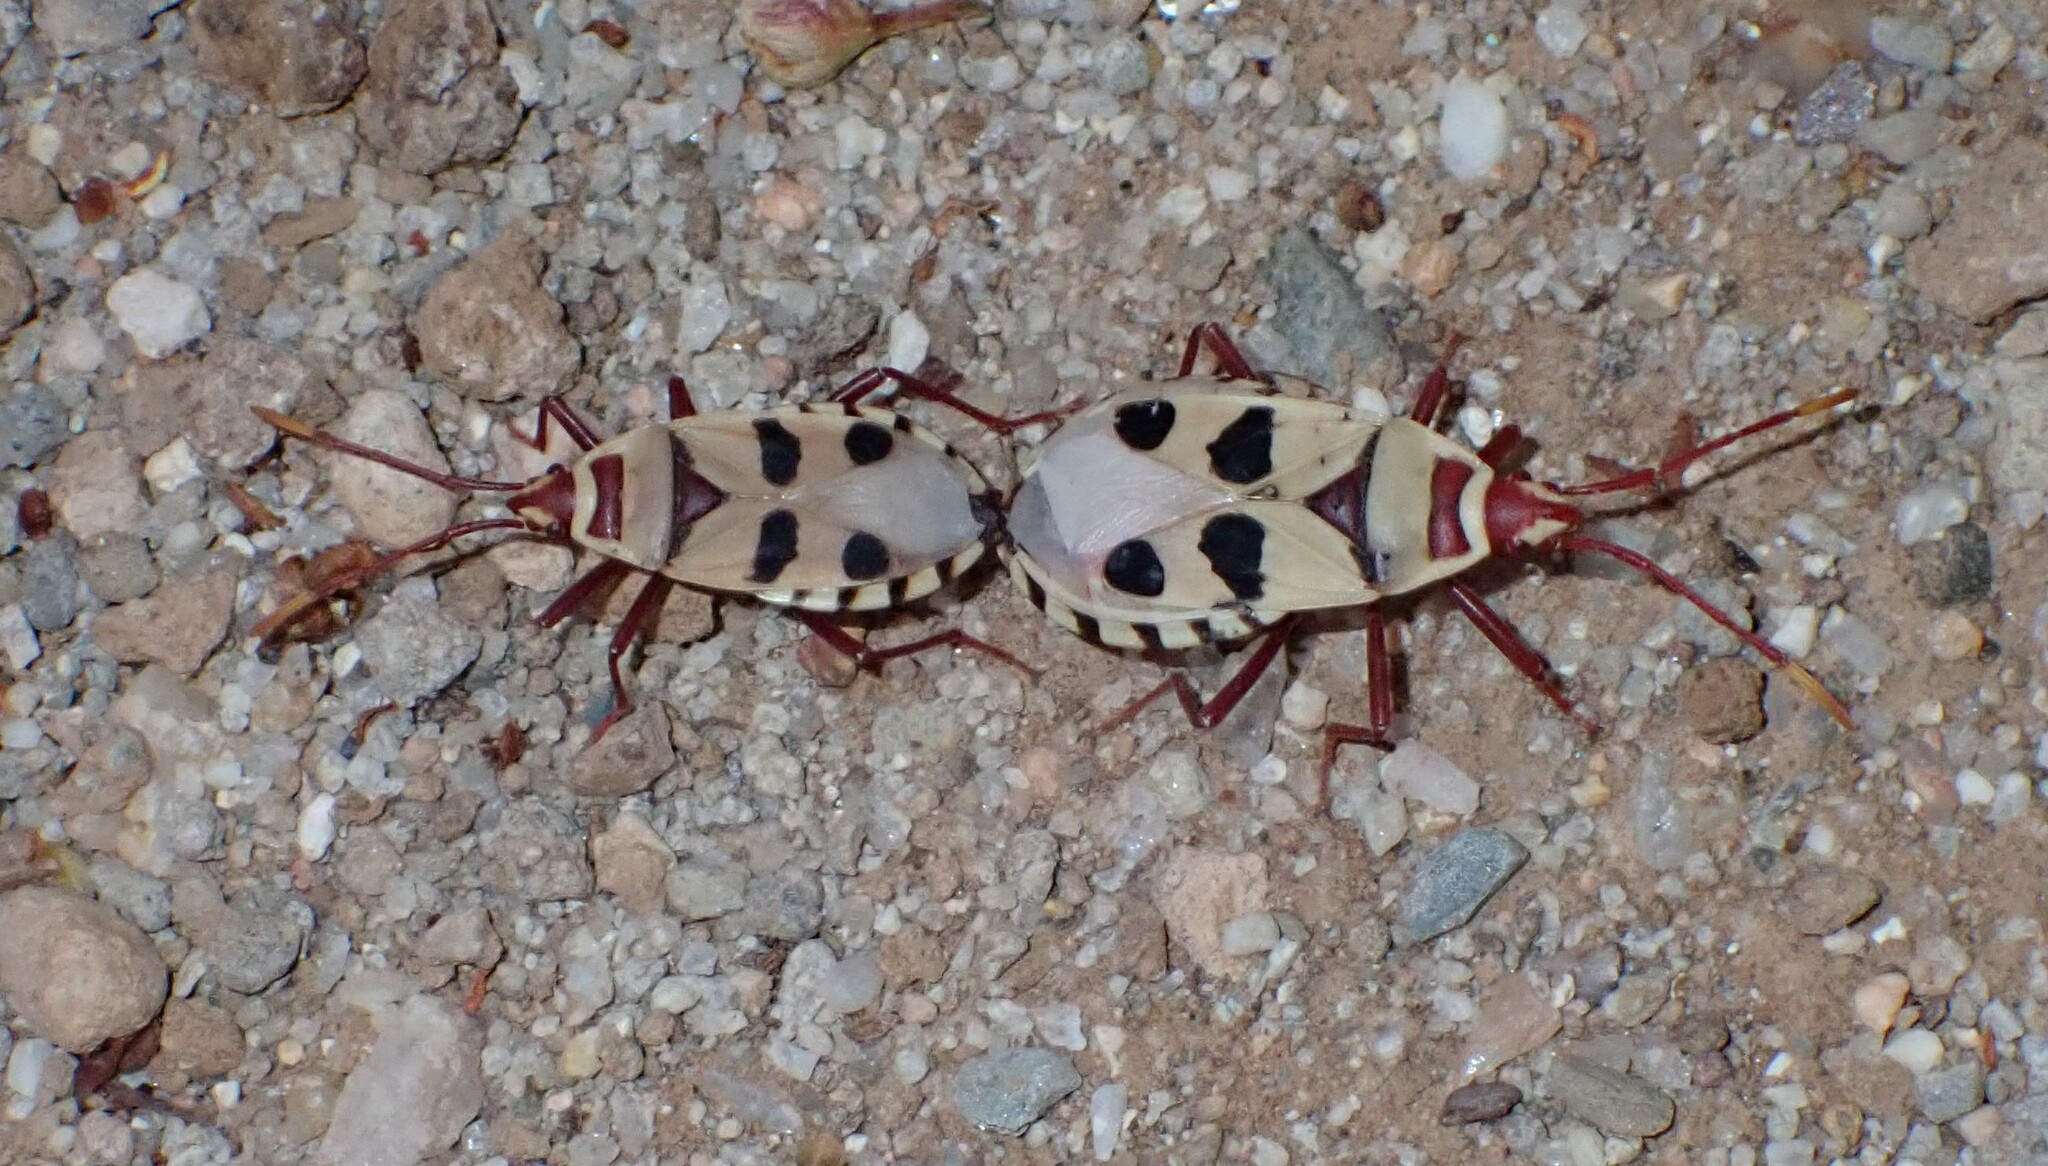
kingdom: Animalia
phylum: Arthropoda
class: Insecta
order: Hemiptera
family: Pyrrhocoridae
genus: Probergrothius
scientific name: Probergrothius angolensis
